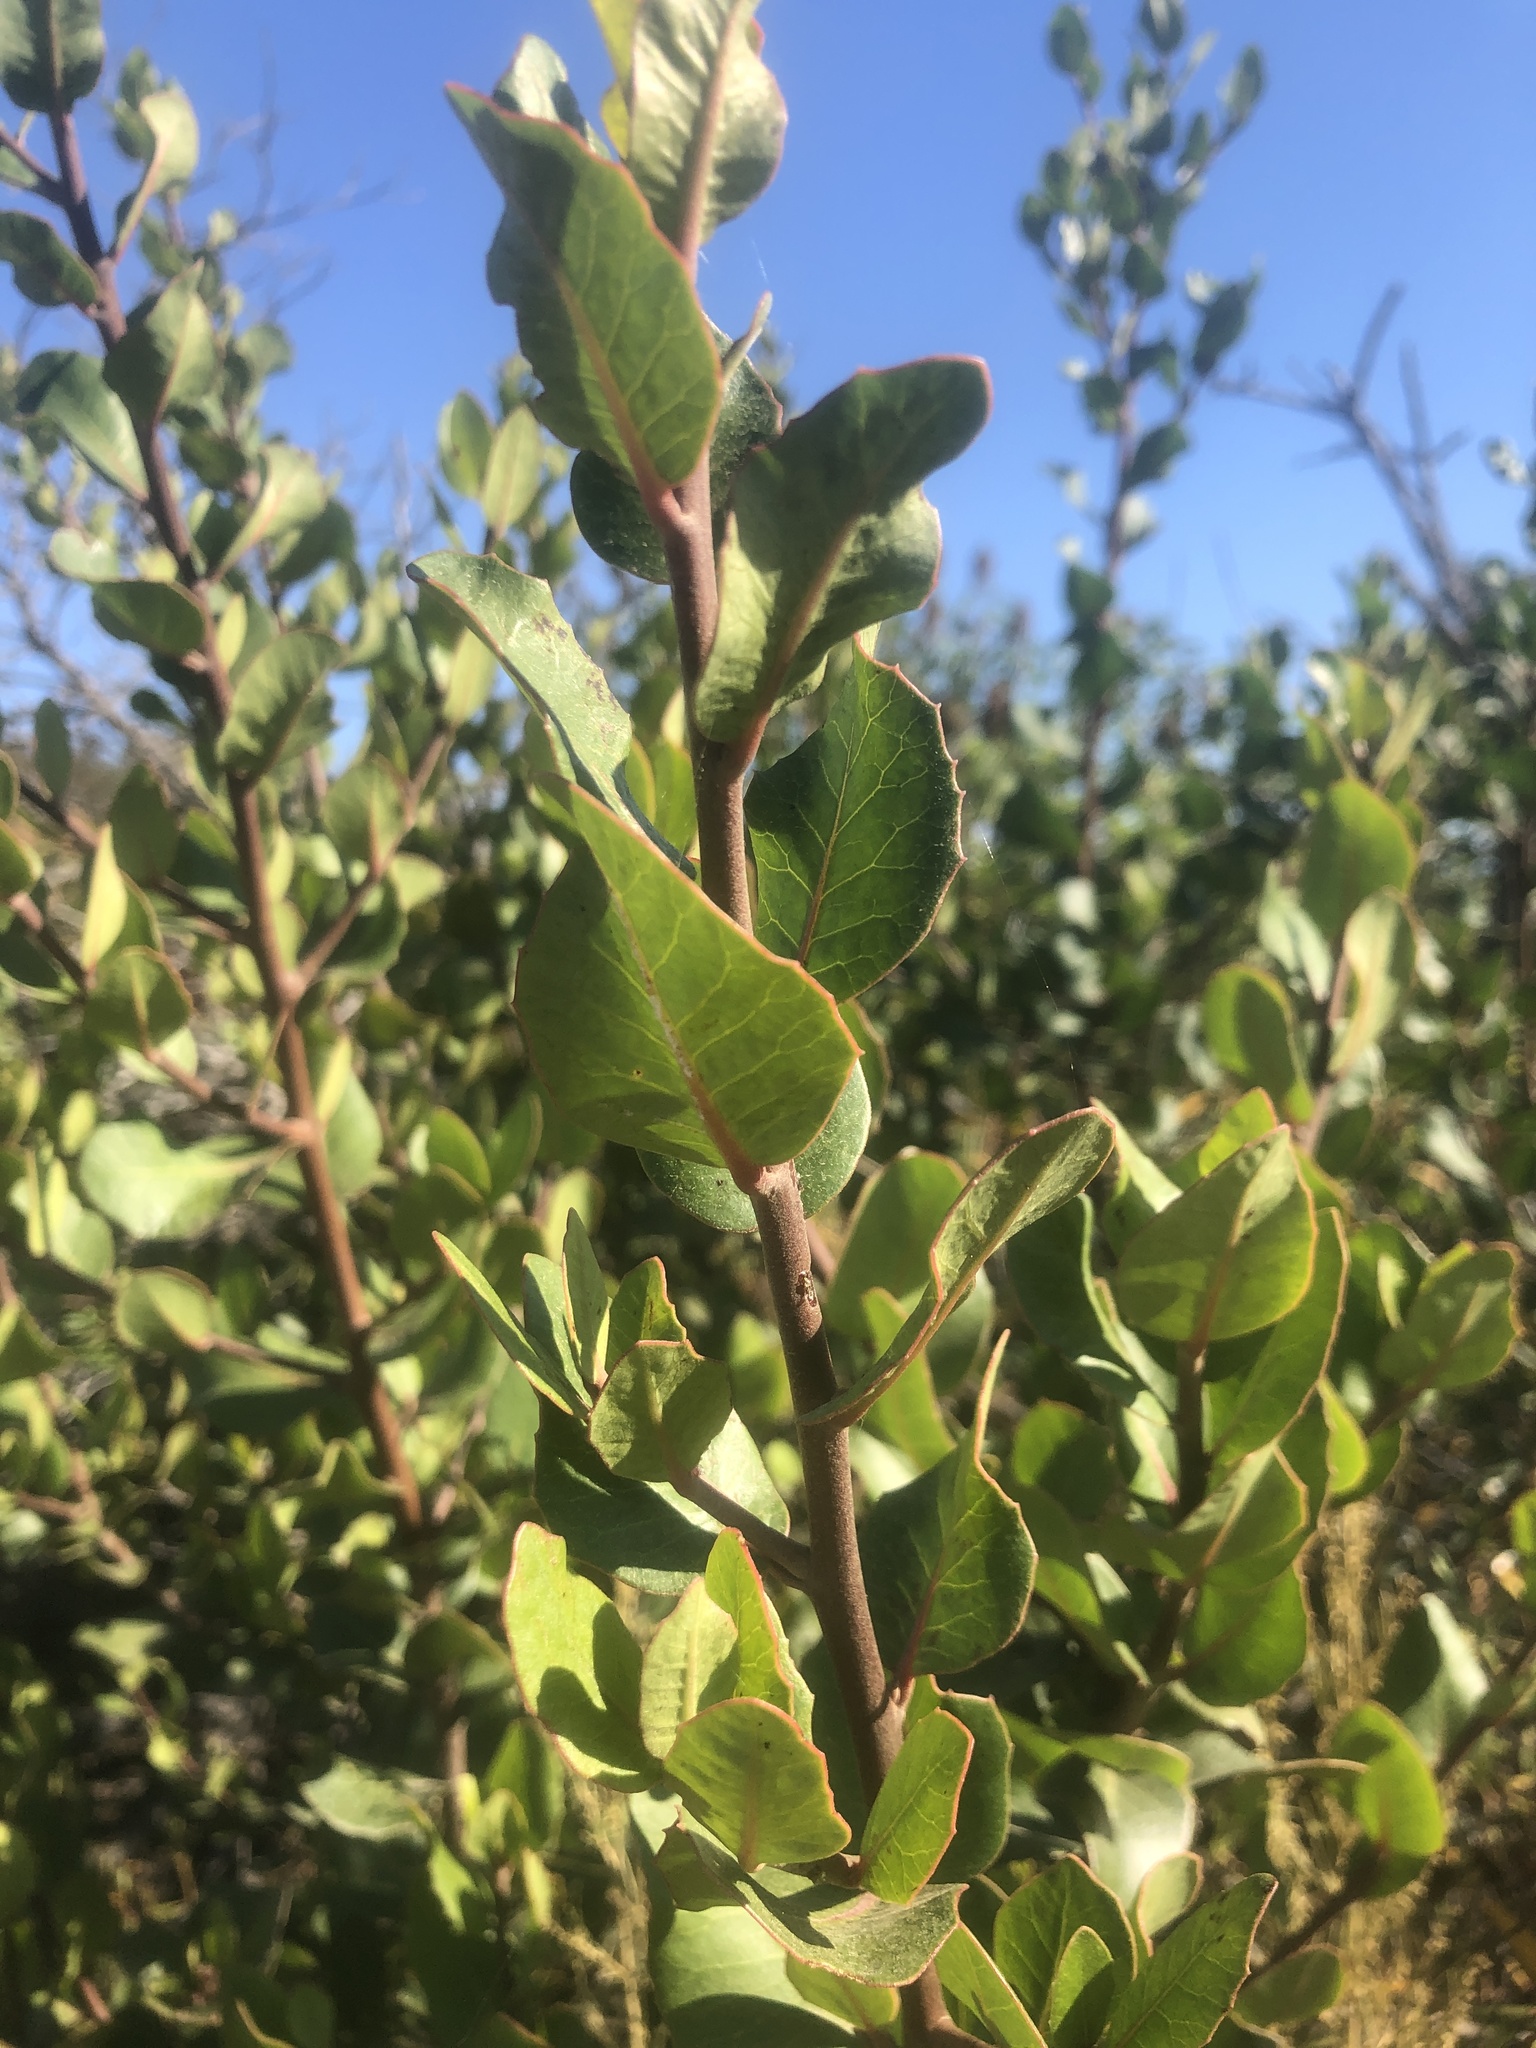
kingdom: Plantae
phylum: Tracheophyta
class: Magnoliopsida
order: Sapindales
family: Anacardiaceae
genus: Rhus
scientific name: Rhus integrifolia
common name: Lemonade sumac
